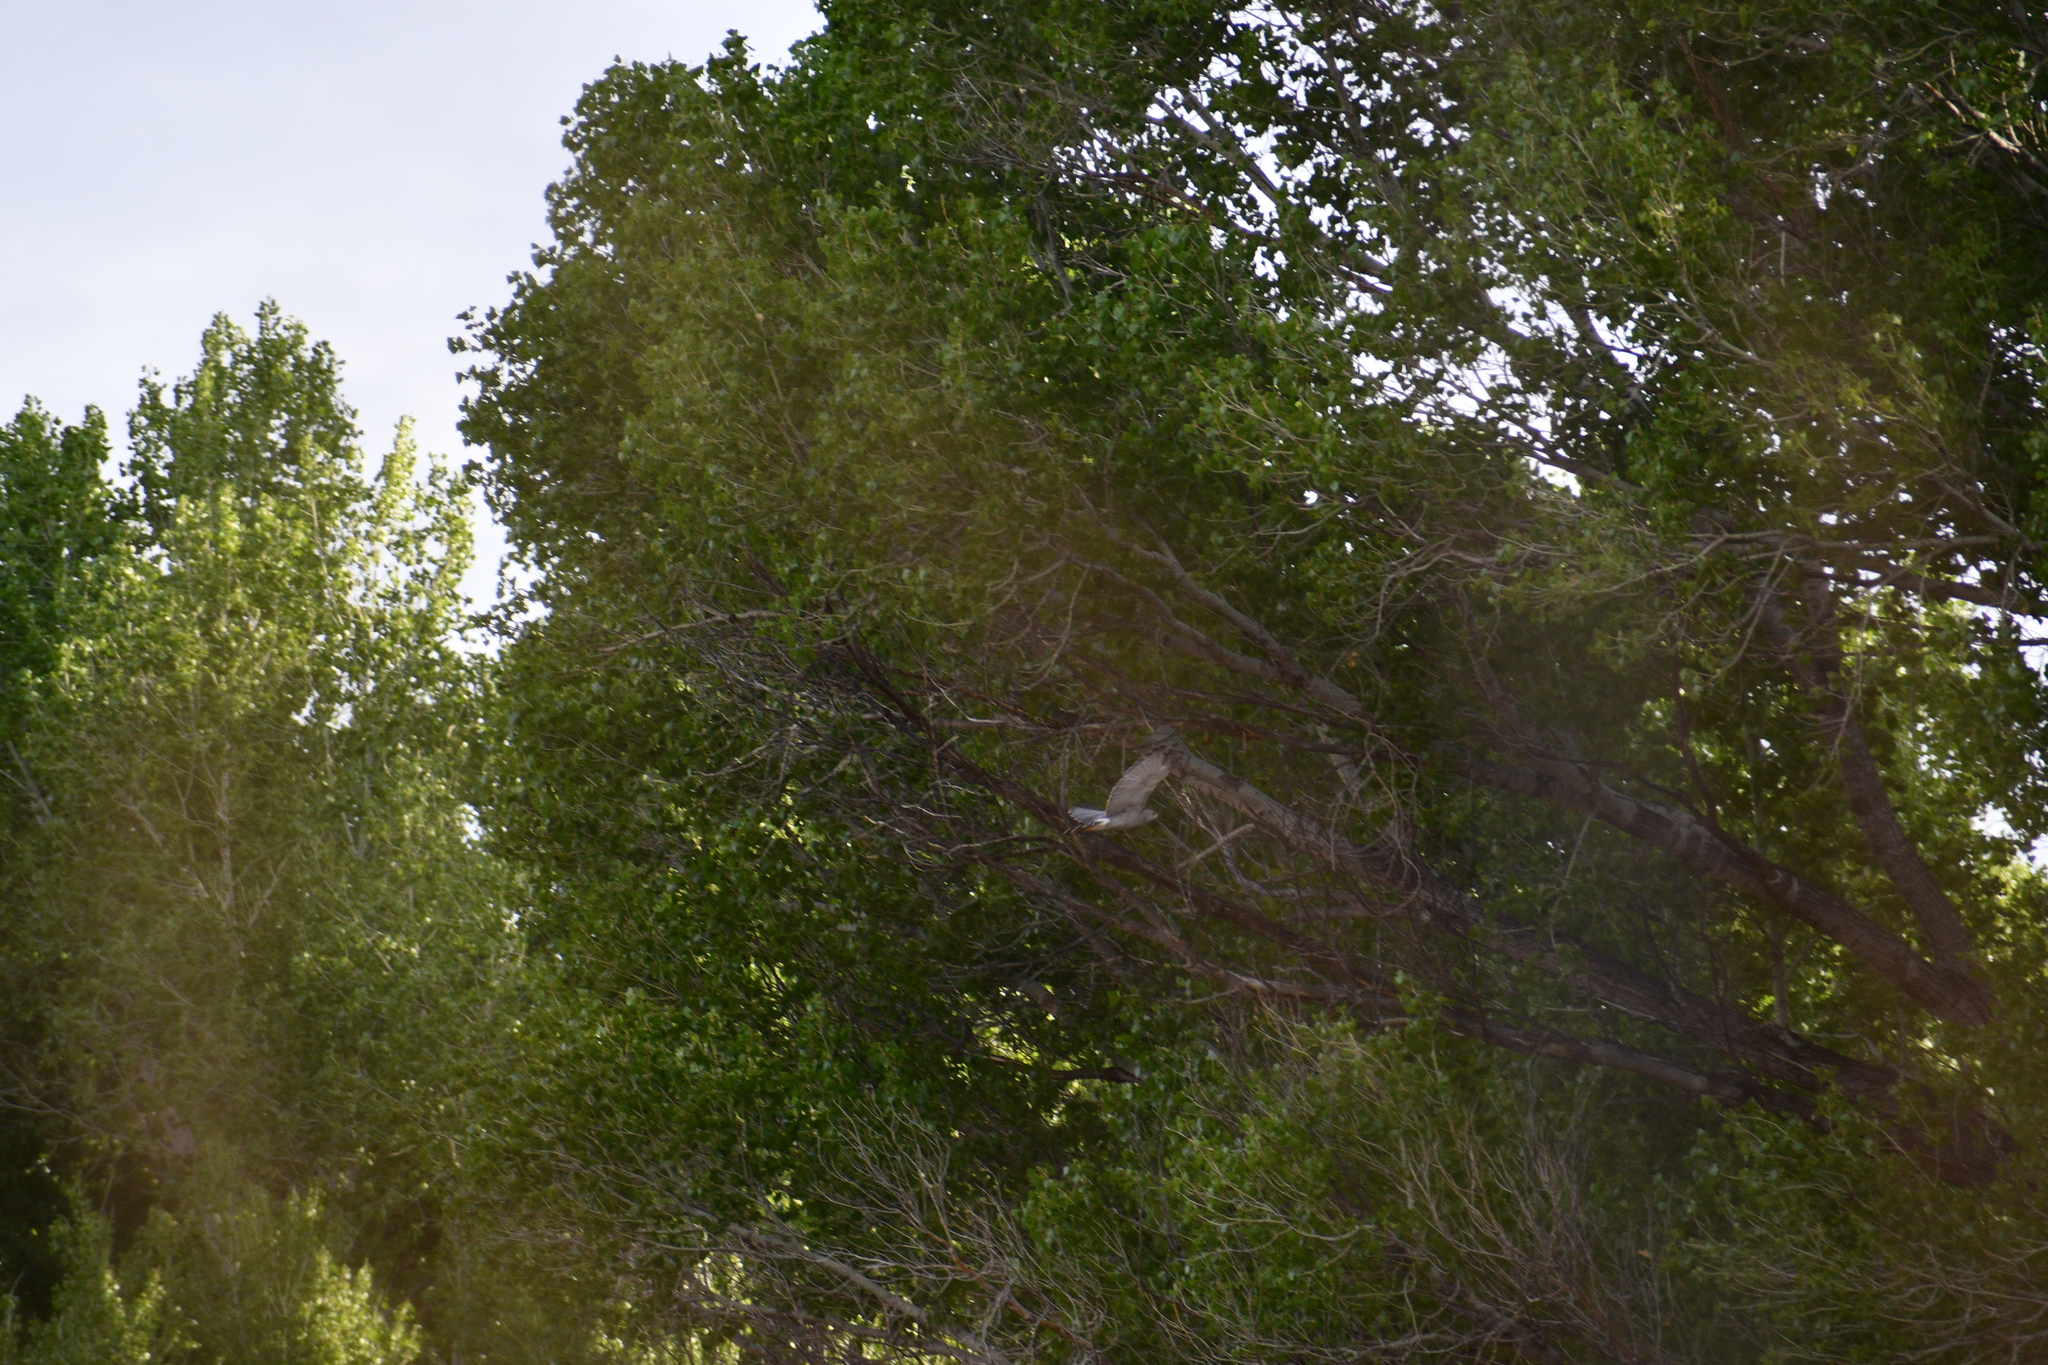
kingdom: Animalia
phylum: Chordata
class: Aves
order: Accipitriformes
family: Accipitridae
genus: Buteo
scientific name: Buteo nitidus
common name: Grey-lined hawk
